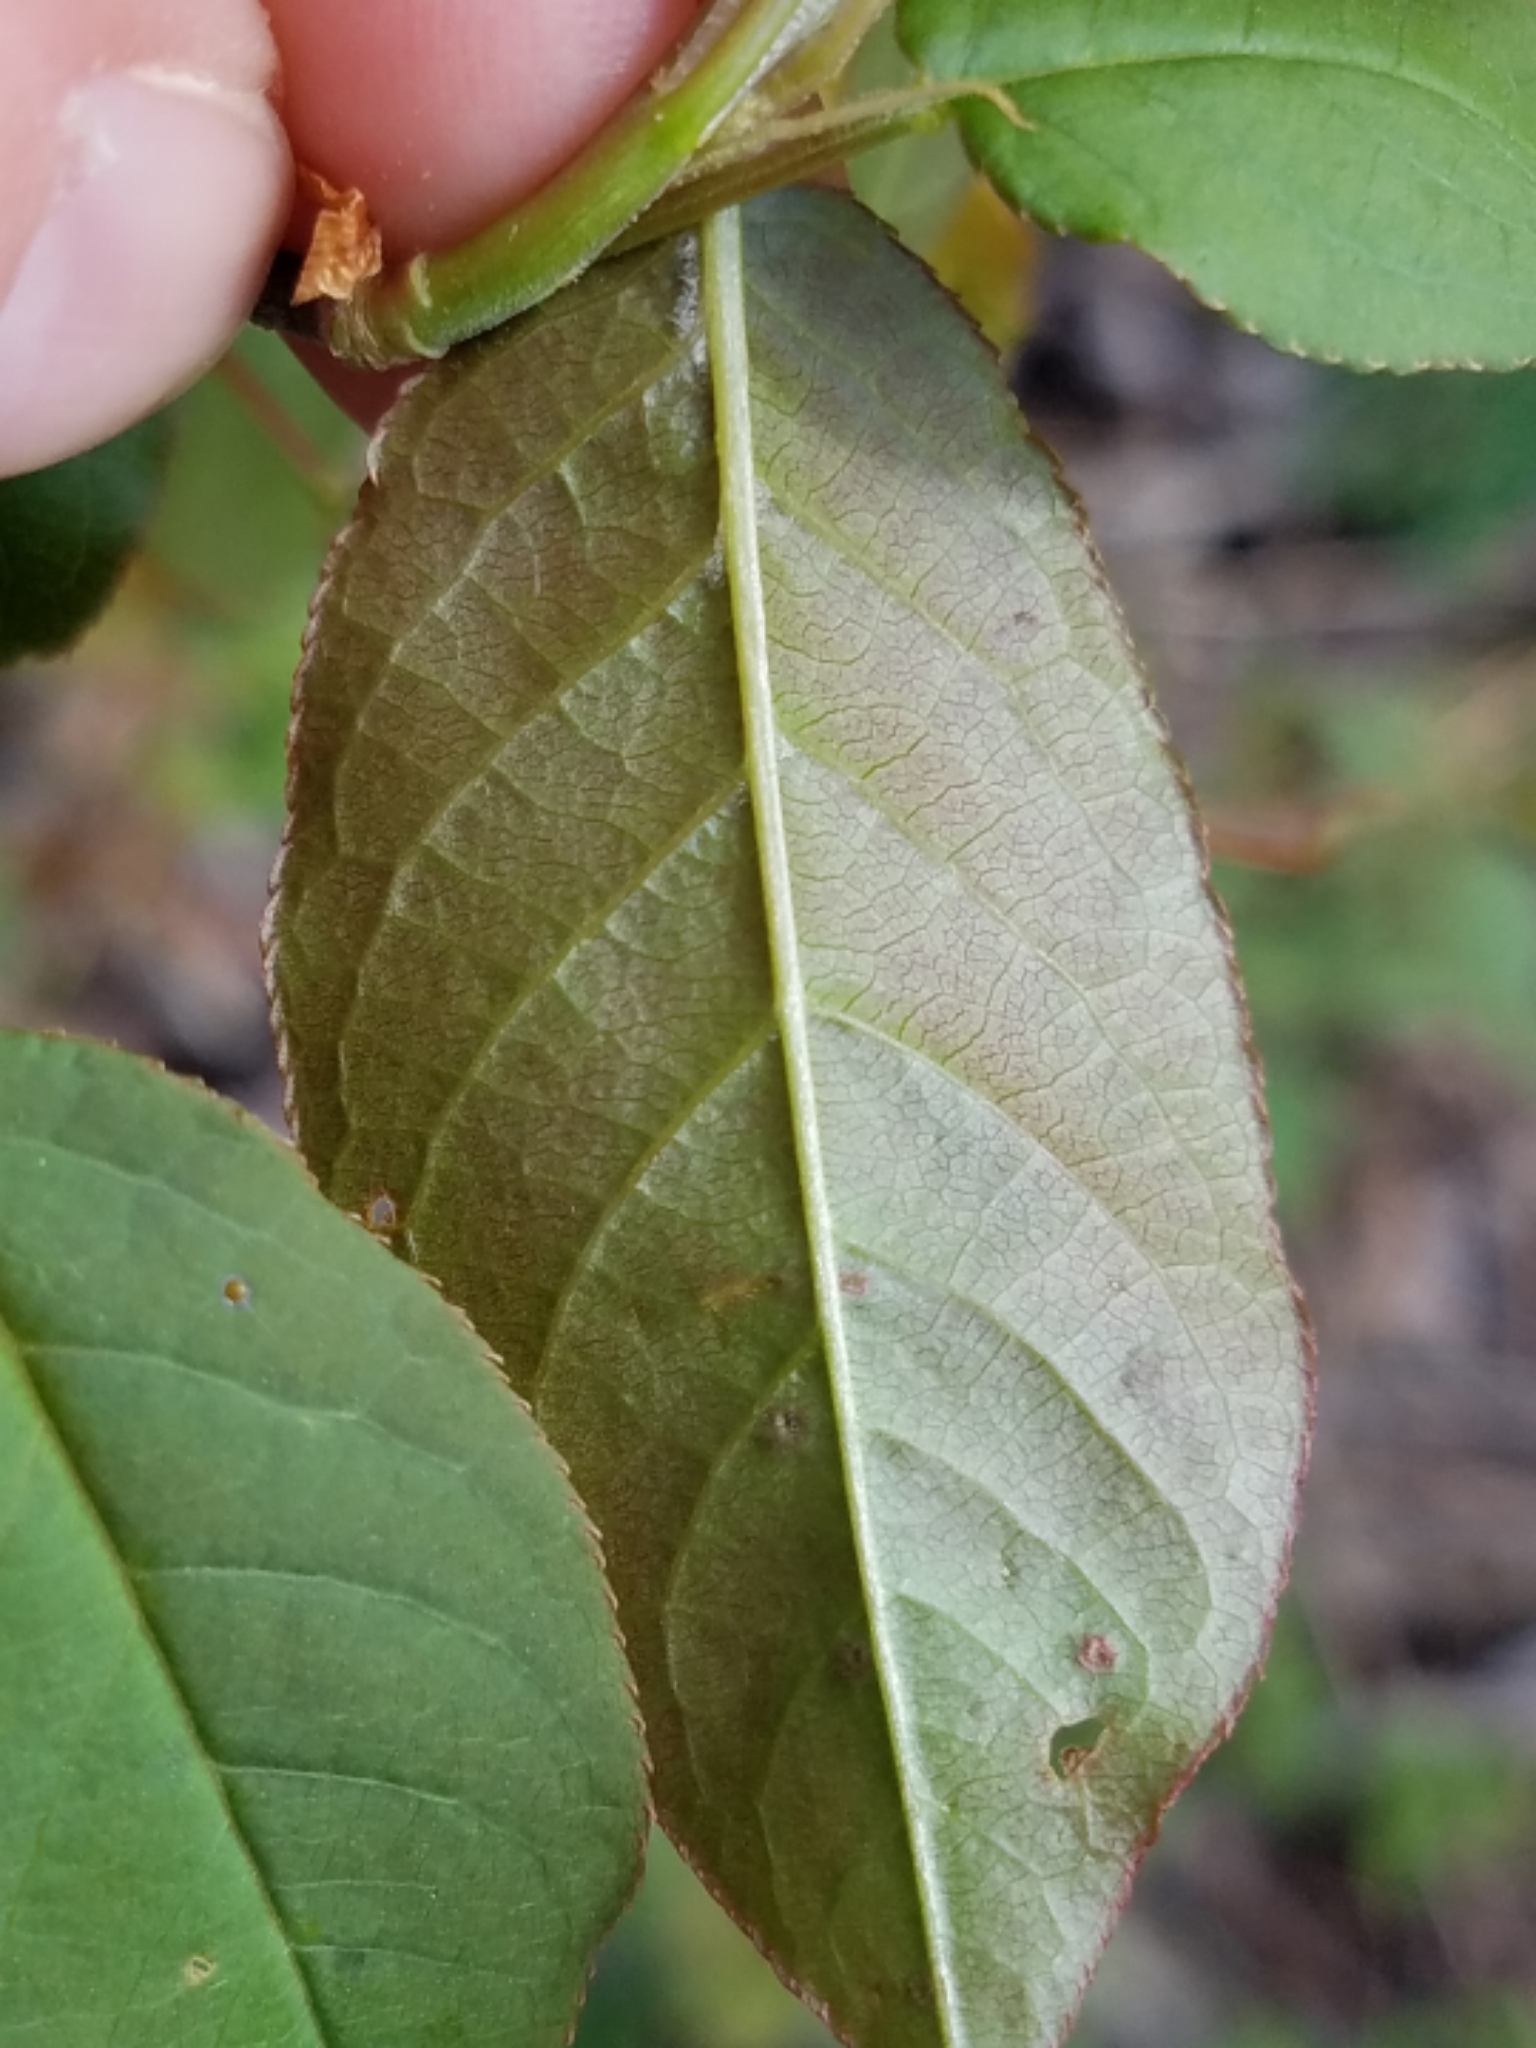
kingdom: Plantae
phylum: Tracheophyta
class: Magnoliopsida
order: Rosales
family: Rosaceae
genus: Prunus
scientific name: Prunus virginiana
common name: Chokecherry
